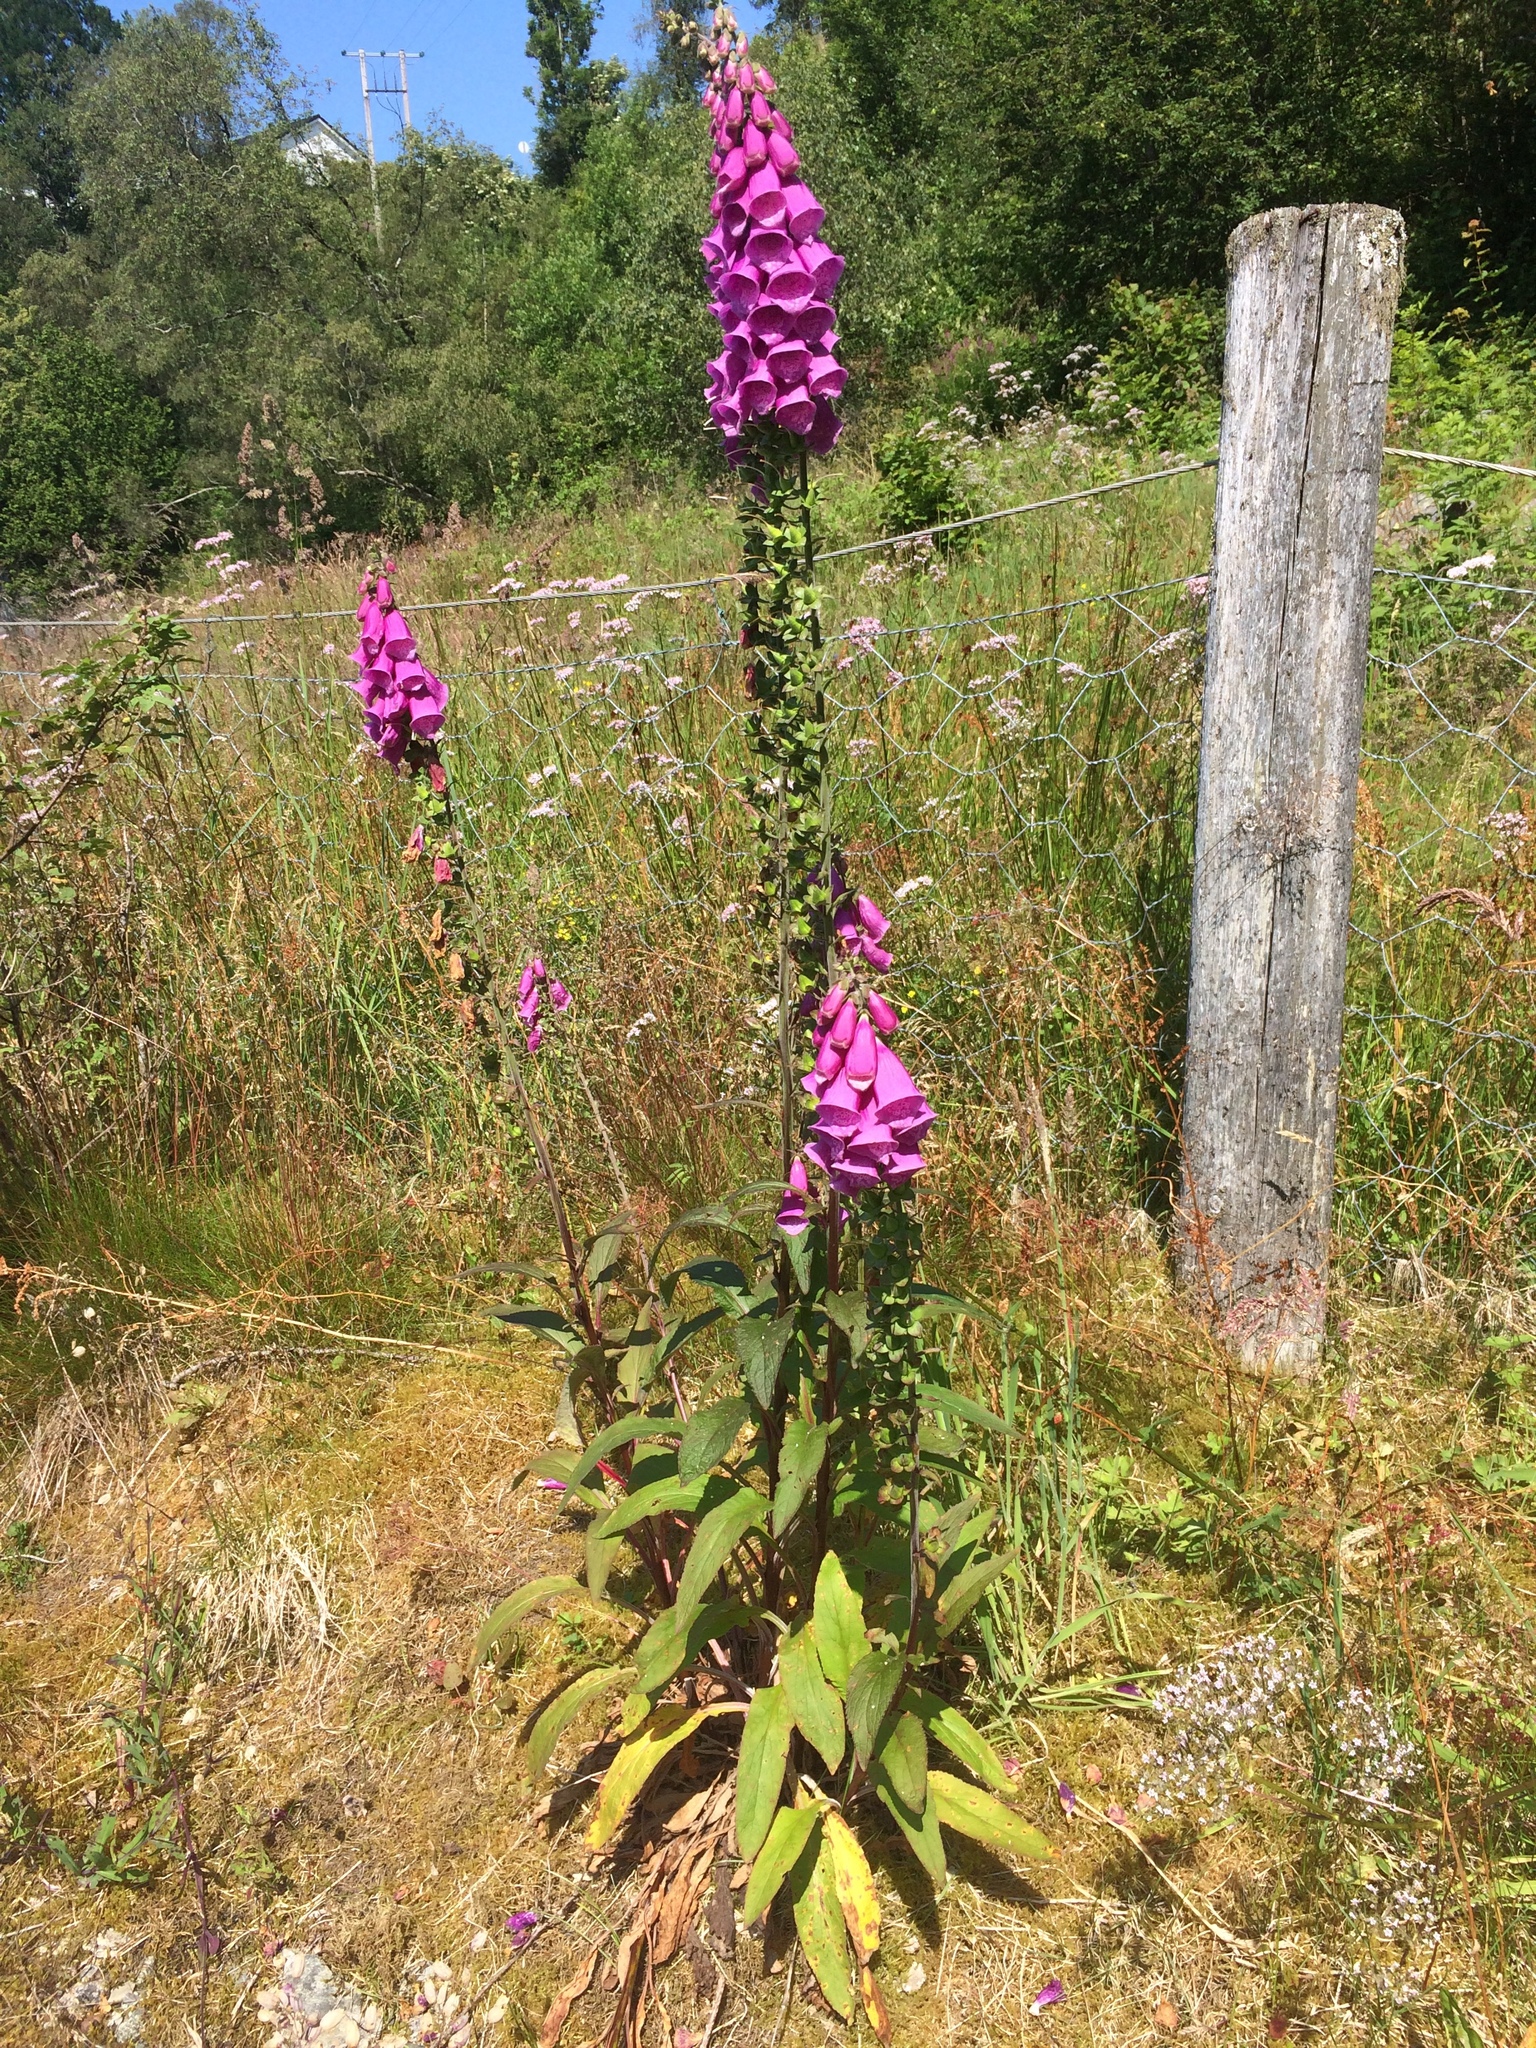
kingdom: Plantae
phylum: Tracheophyta
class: Magnoliopsida
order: Lamiales
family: Plantaginaceae
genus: Digitalis
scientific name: Digitalis purpurea
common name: Foxglove
